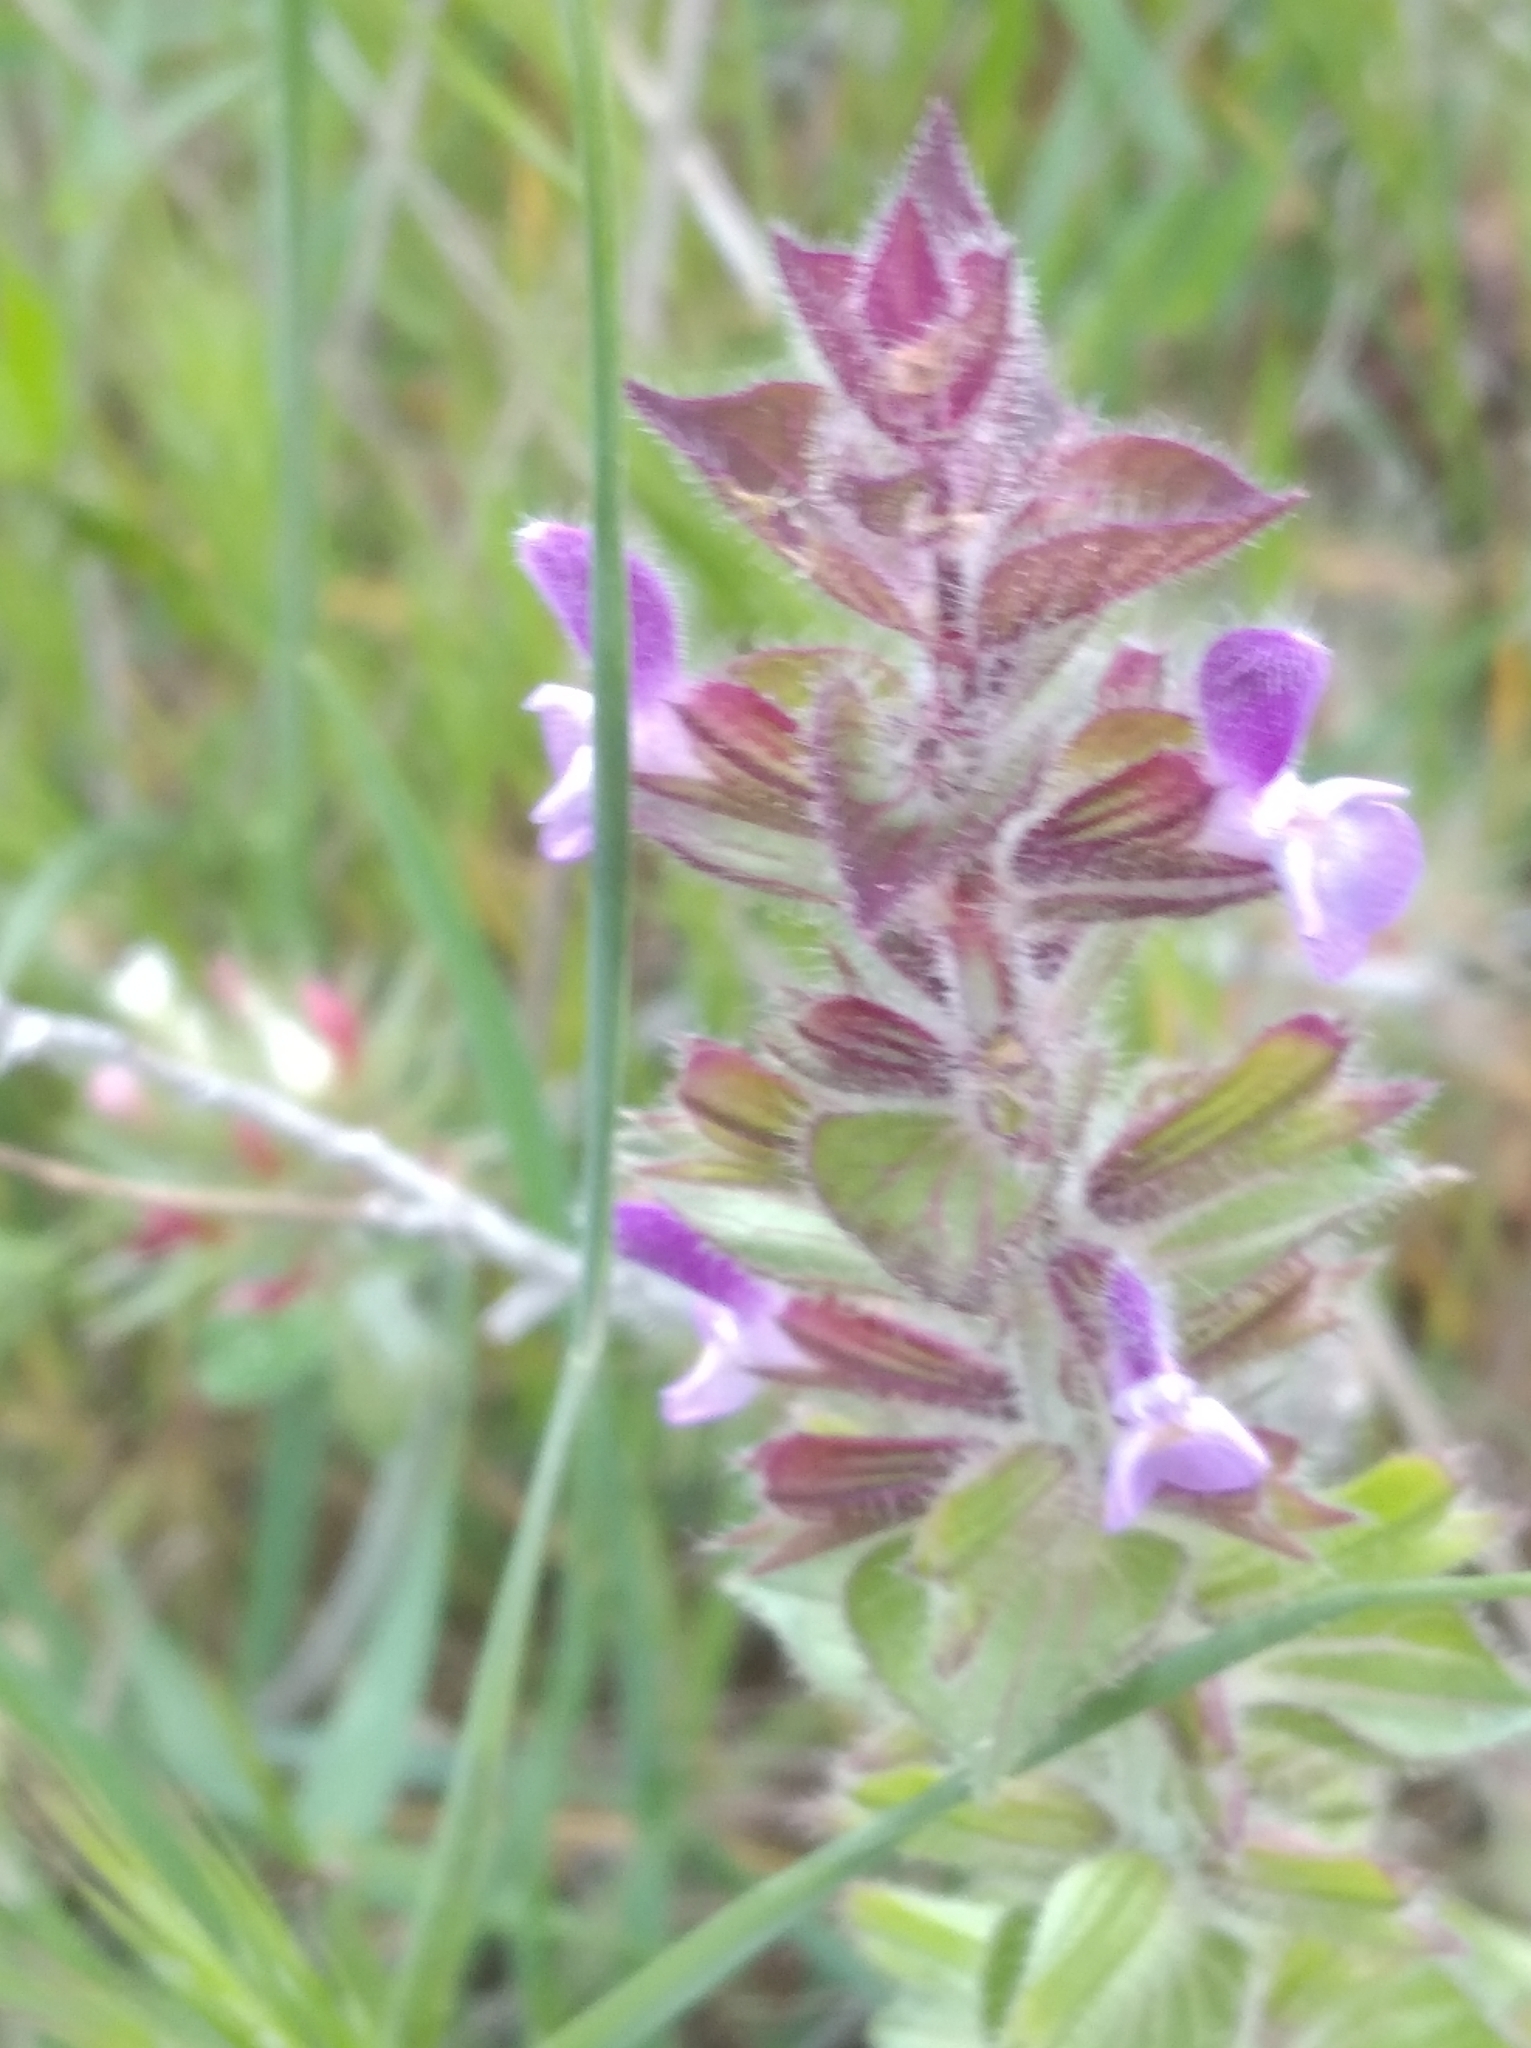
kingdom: Plantae
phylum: Tracheophyta
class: Magnoliopsida
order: Lamiales
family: Lamiaceae
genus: Salvia
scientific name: Salvia viridis
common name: Annual clary
